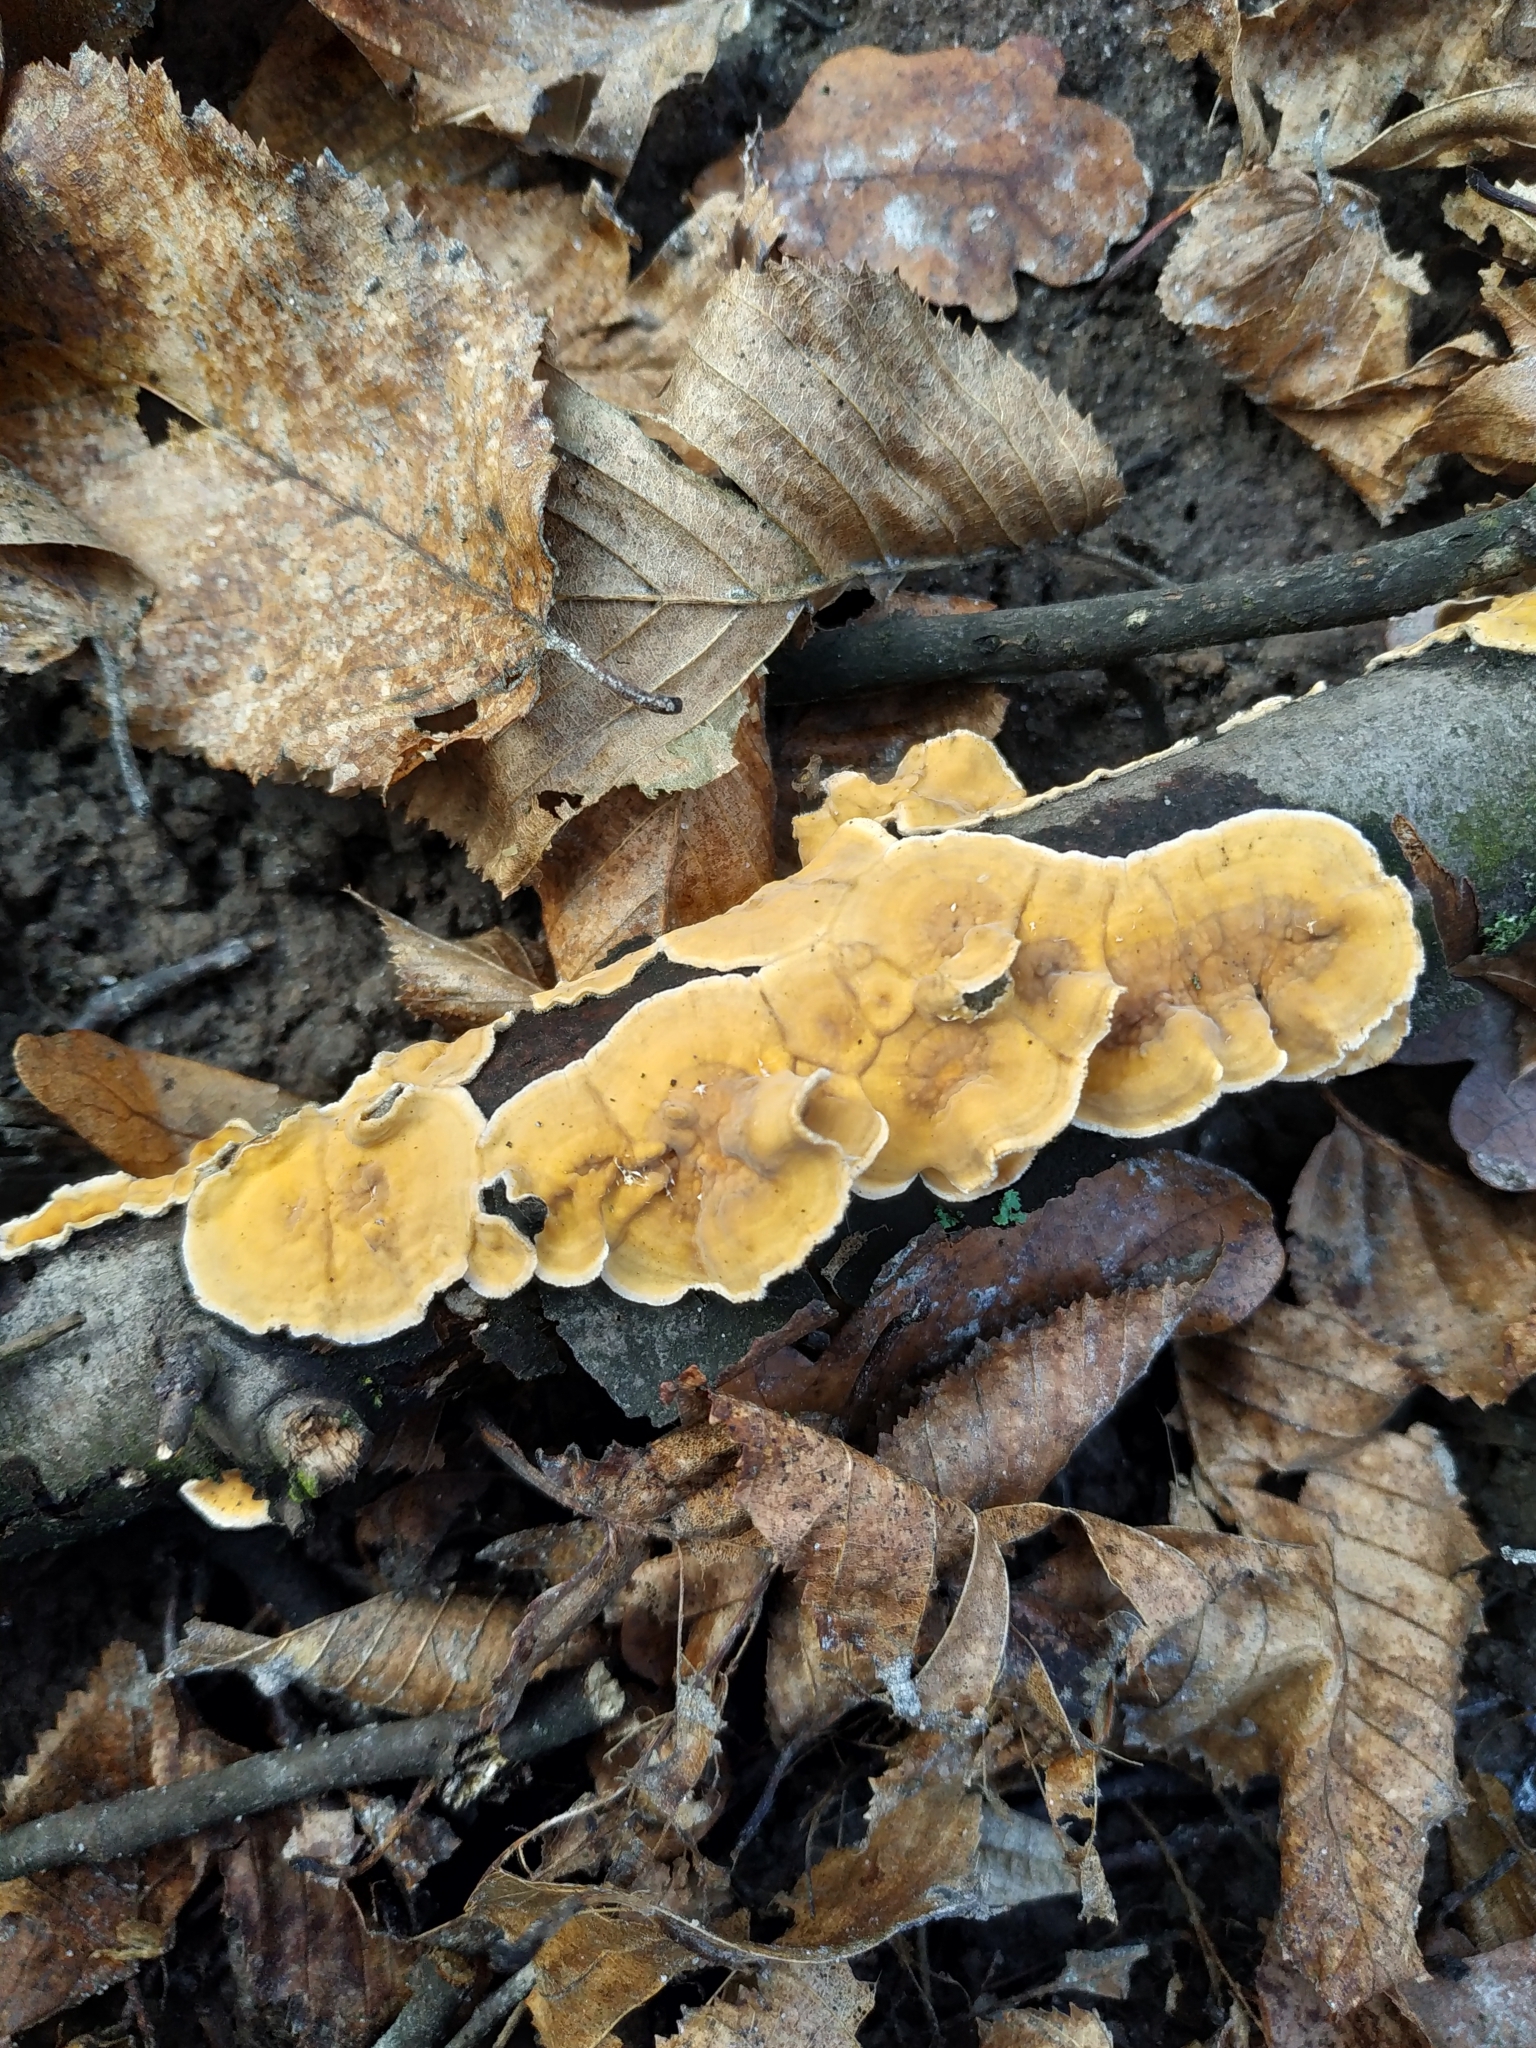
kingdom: Fungi
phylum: Basidiomycota
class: Agaricomycetes
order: Russulales
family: Stereaceae
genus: Stereum
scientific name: Stereum hirsutum
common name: Hairy curtain crust
